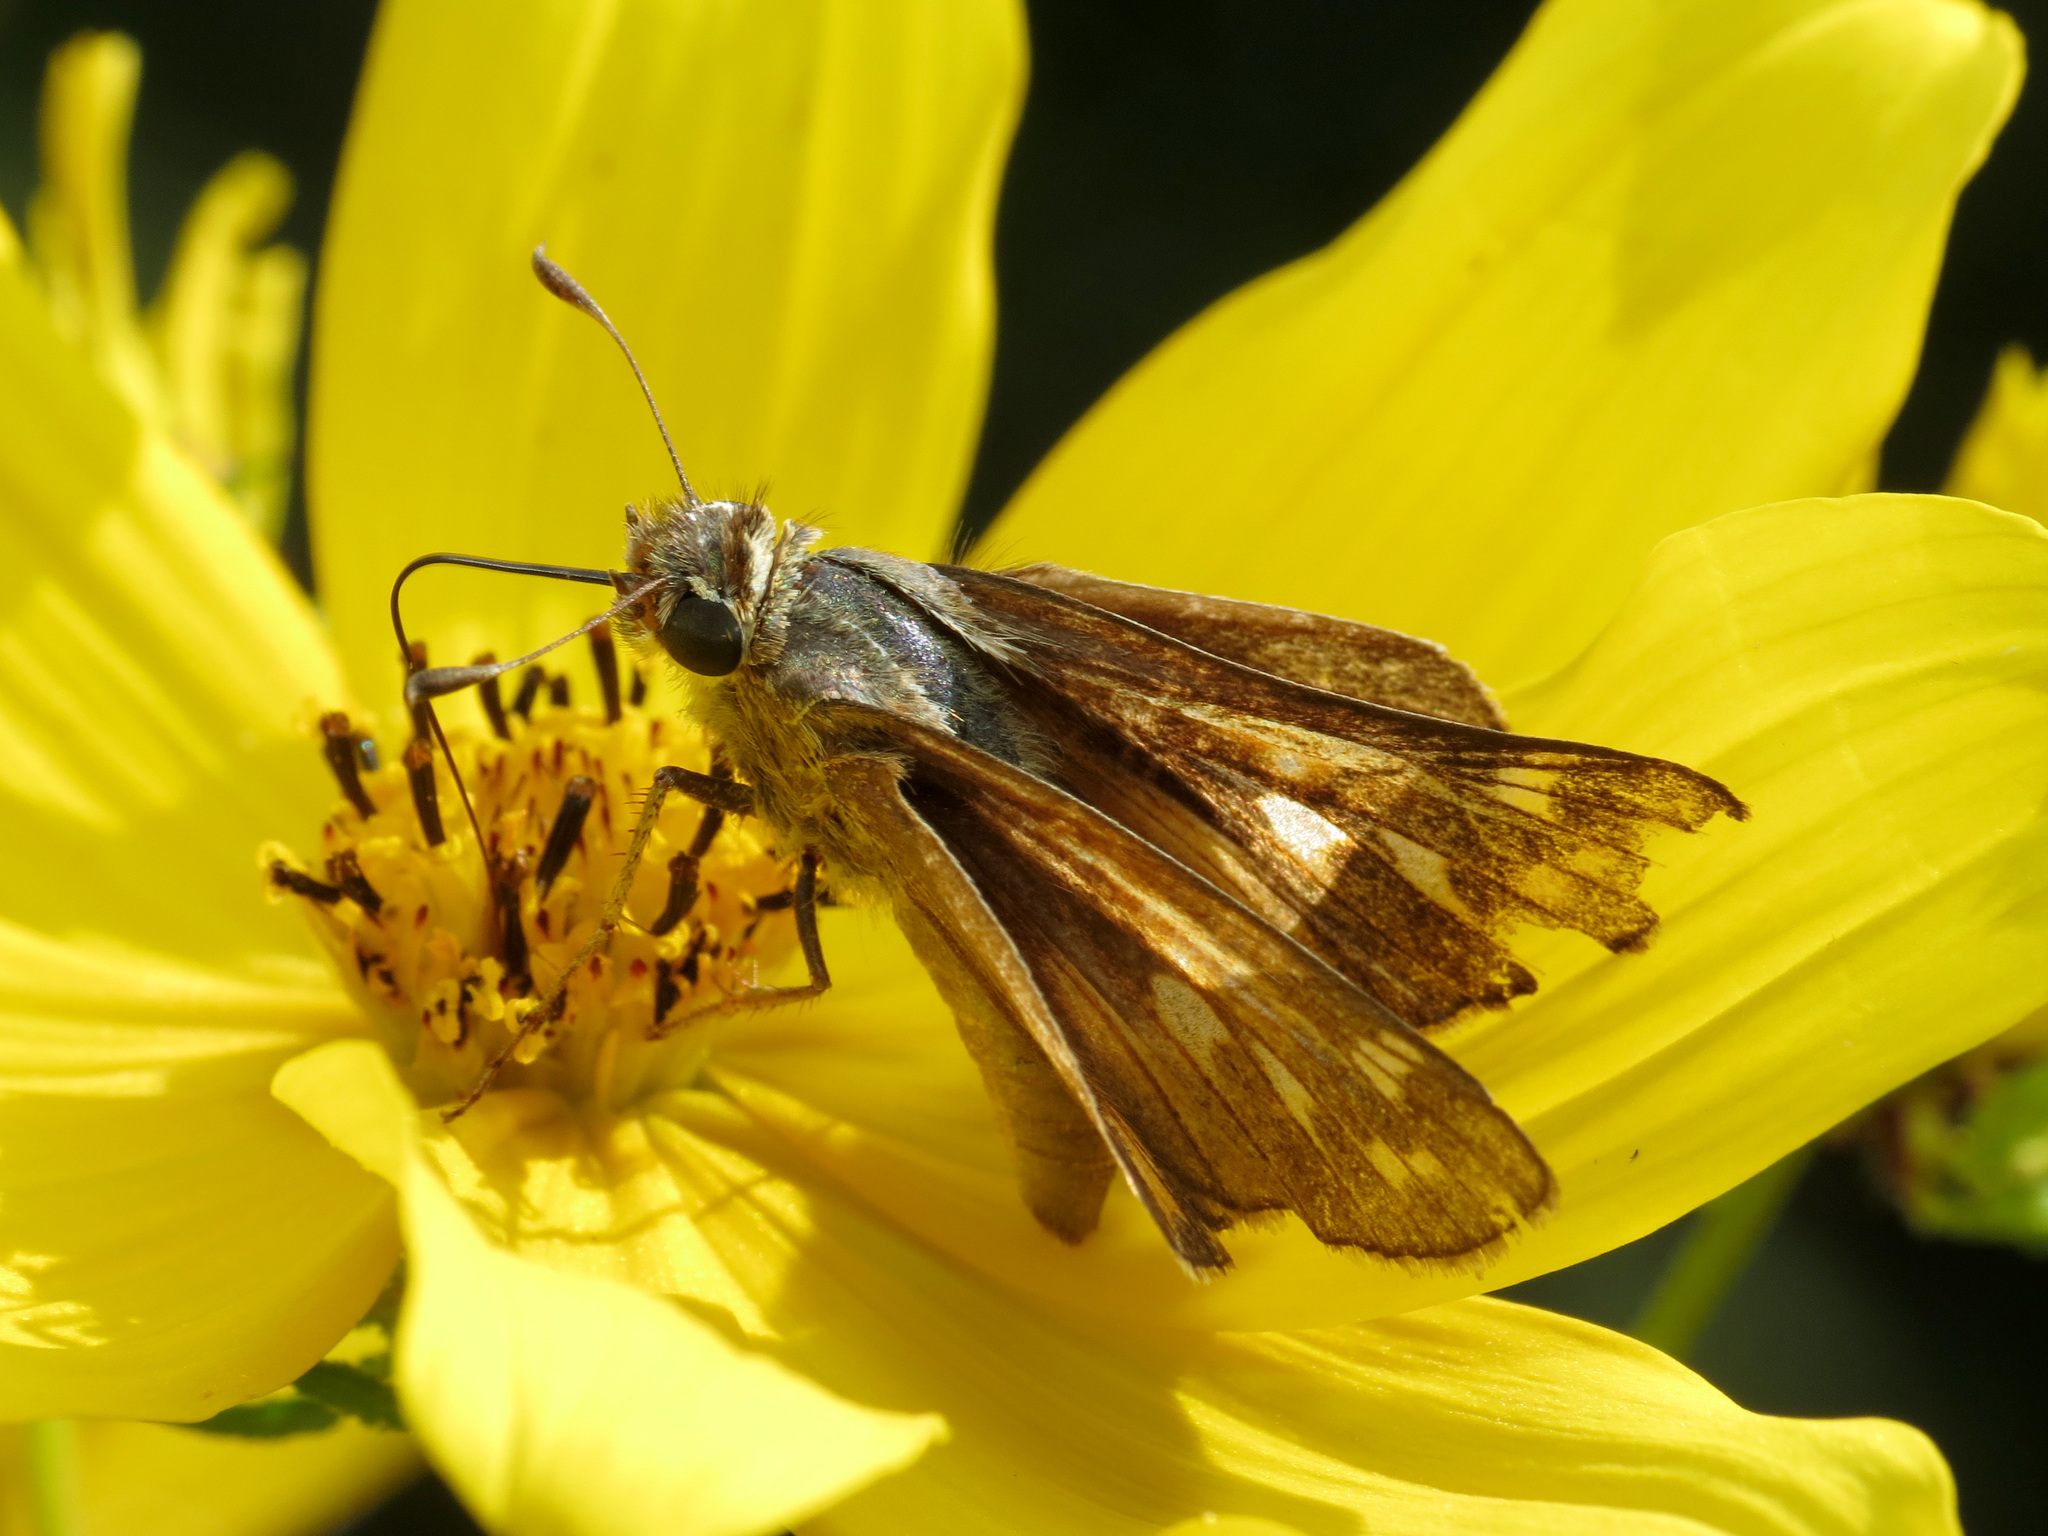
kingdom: Animalia
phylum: Arthropoda
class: Insecta
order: Lepidoptera
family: Hesperiidae
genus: Atalopedes
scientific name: Atalopedes
